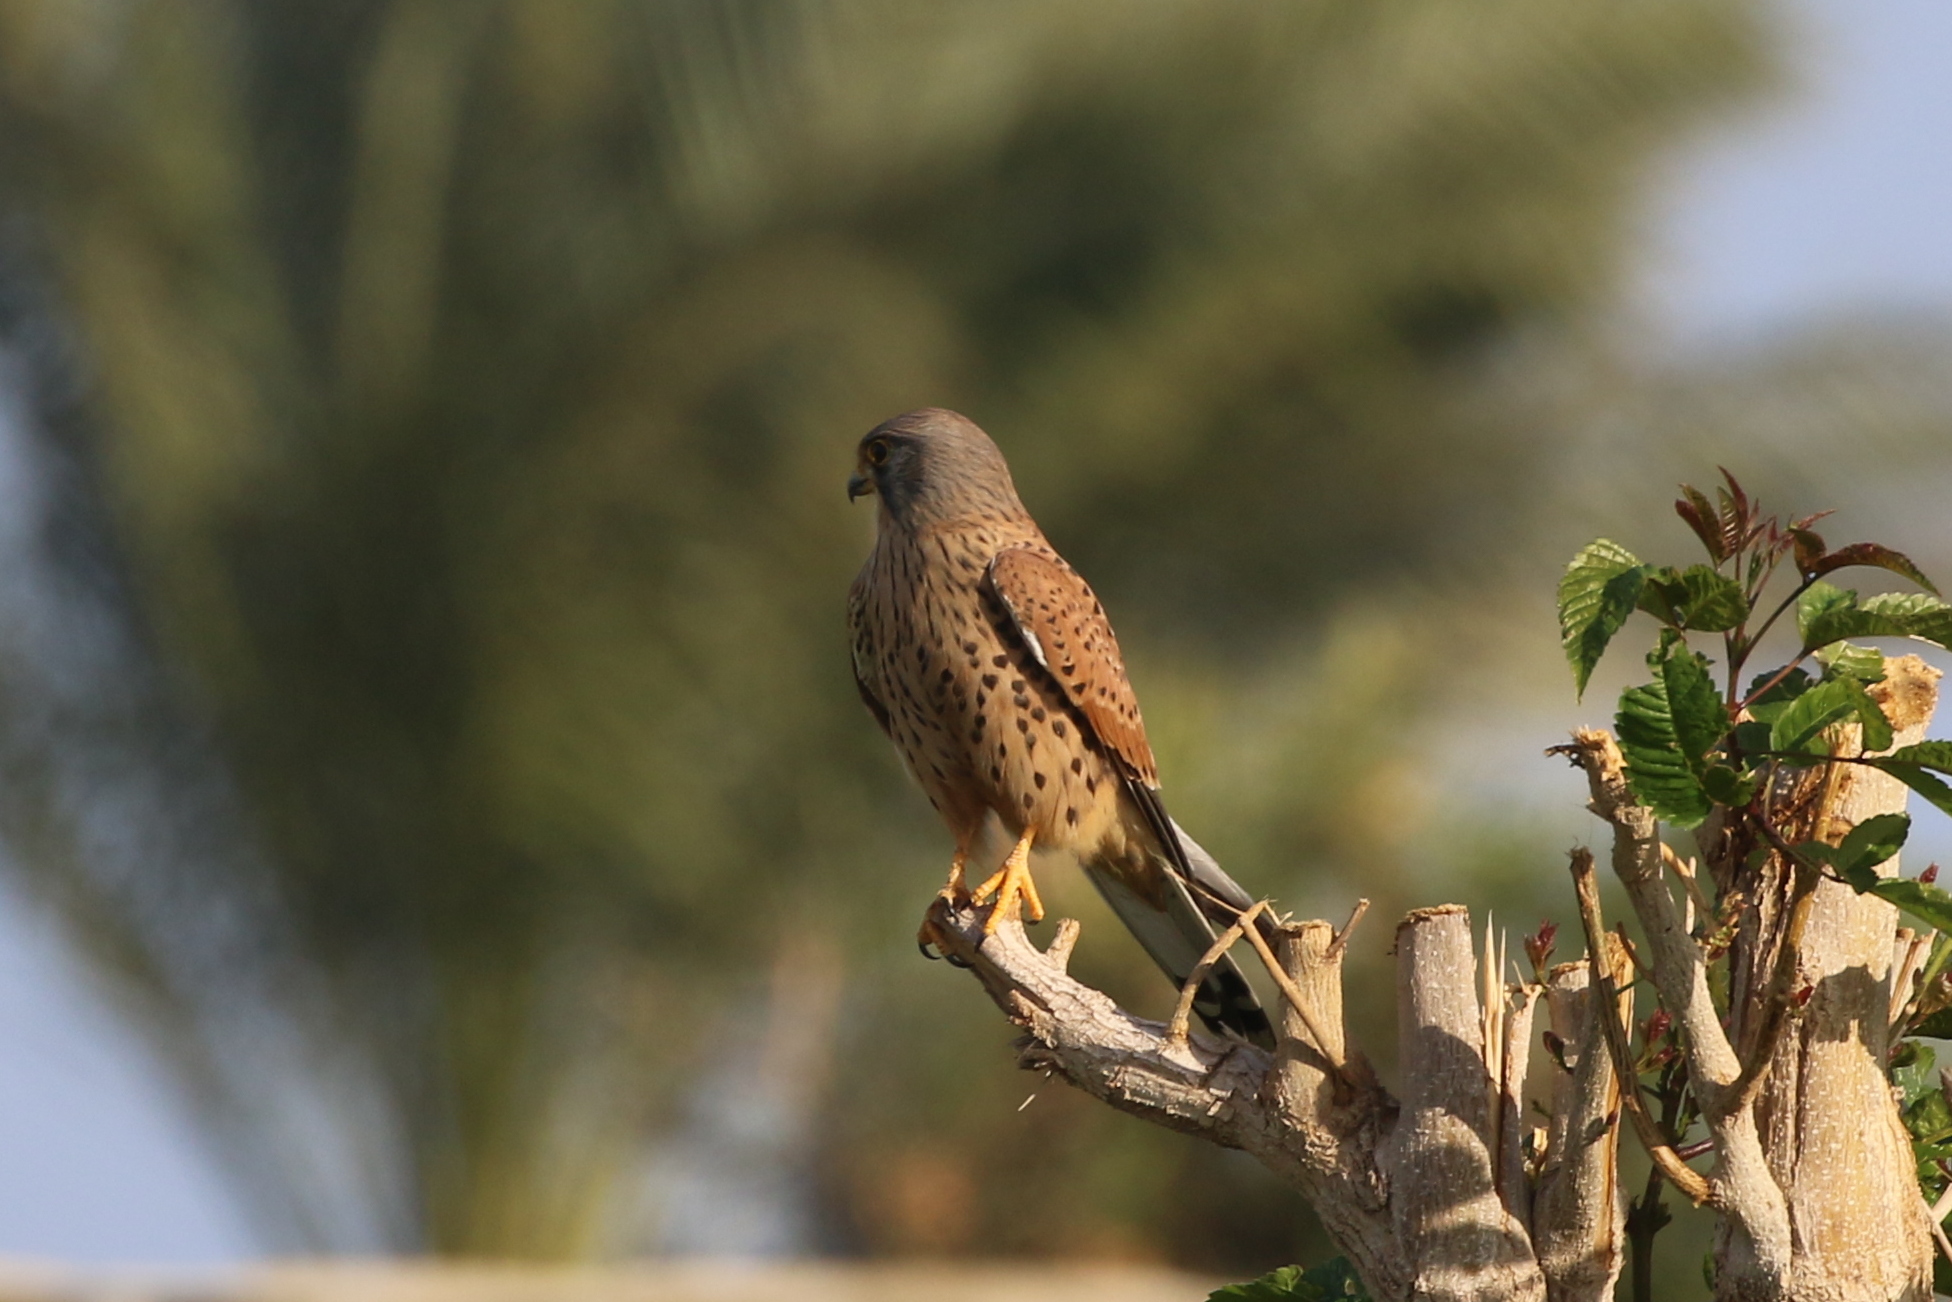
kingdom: Animalia
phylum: Chordata
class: Aves
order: Falconiformes
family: Falconidae
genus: Falco
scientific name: Falco tinnunculus
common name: Common kestrel
